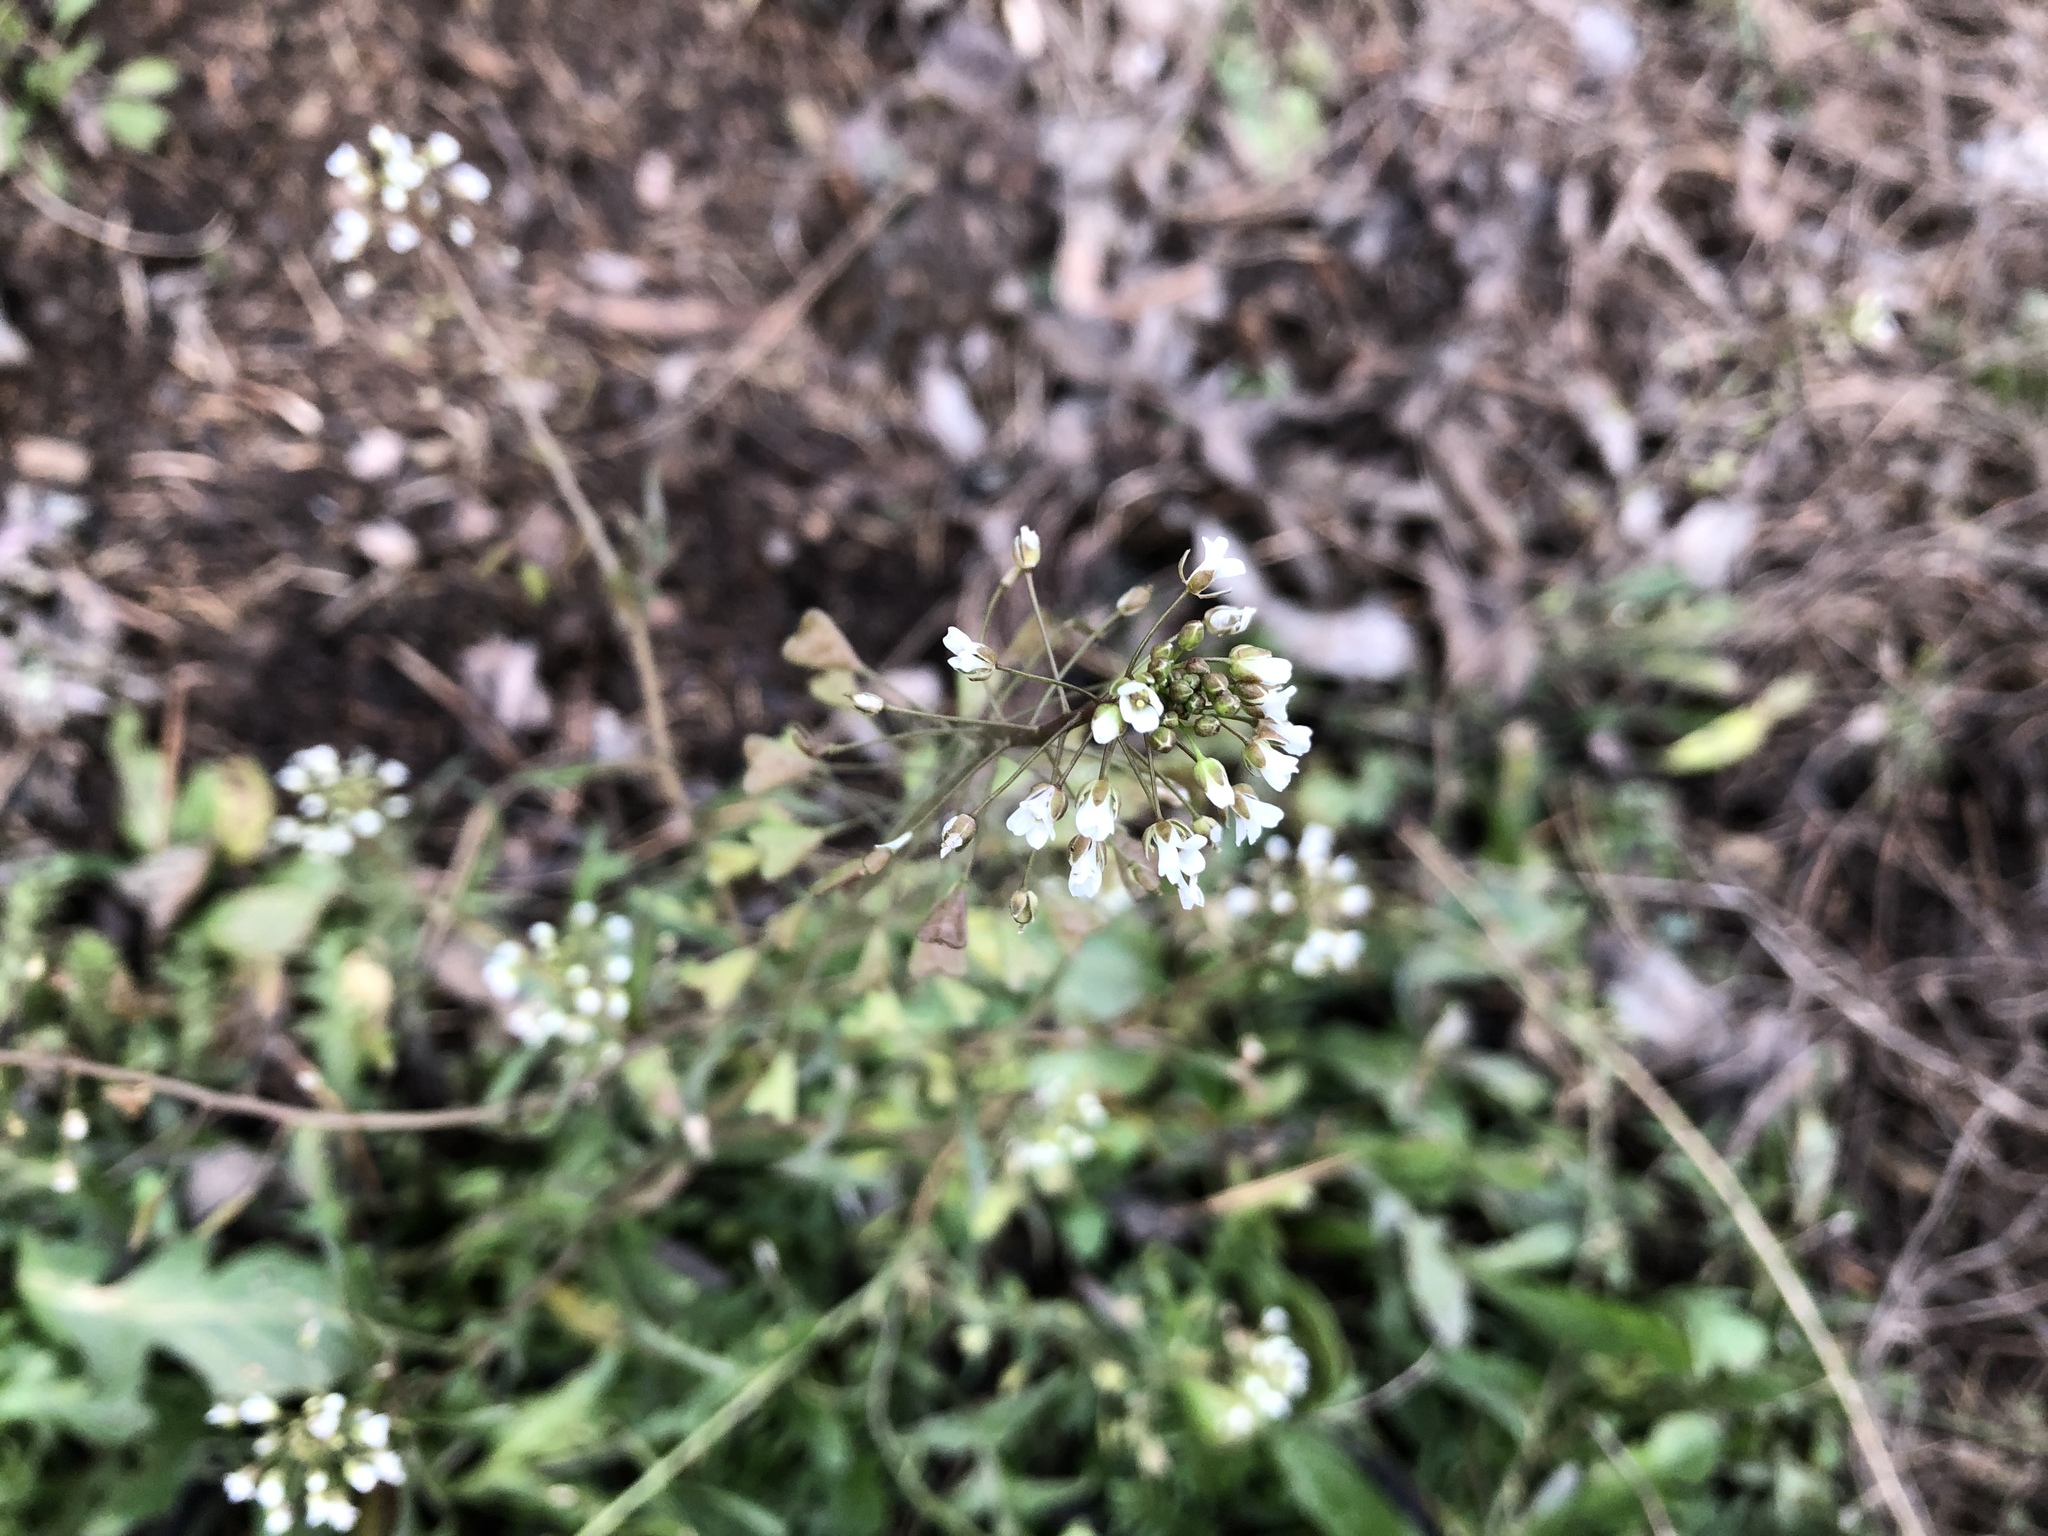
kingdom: Plantae
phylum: Tracheophyta
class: Magnoliopsida
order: Brassicales
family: Brassicaceae
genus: Capsella
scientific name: Capsella bursa-pastoris
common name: Shepherd's purse
